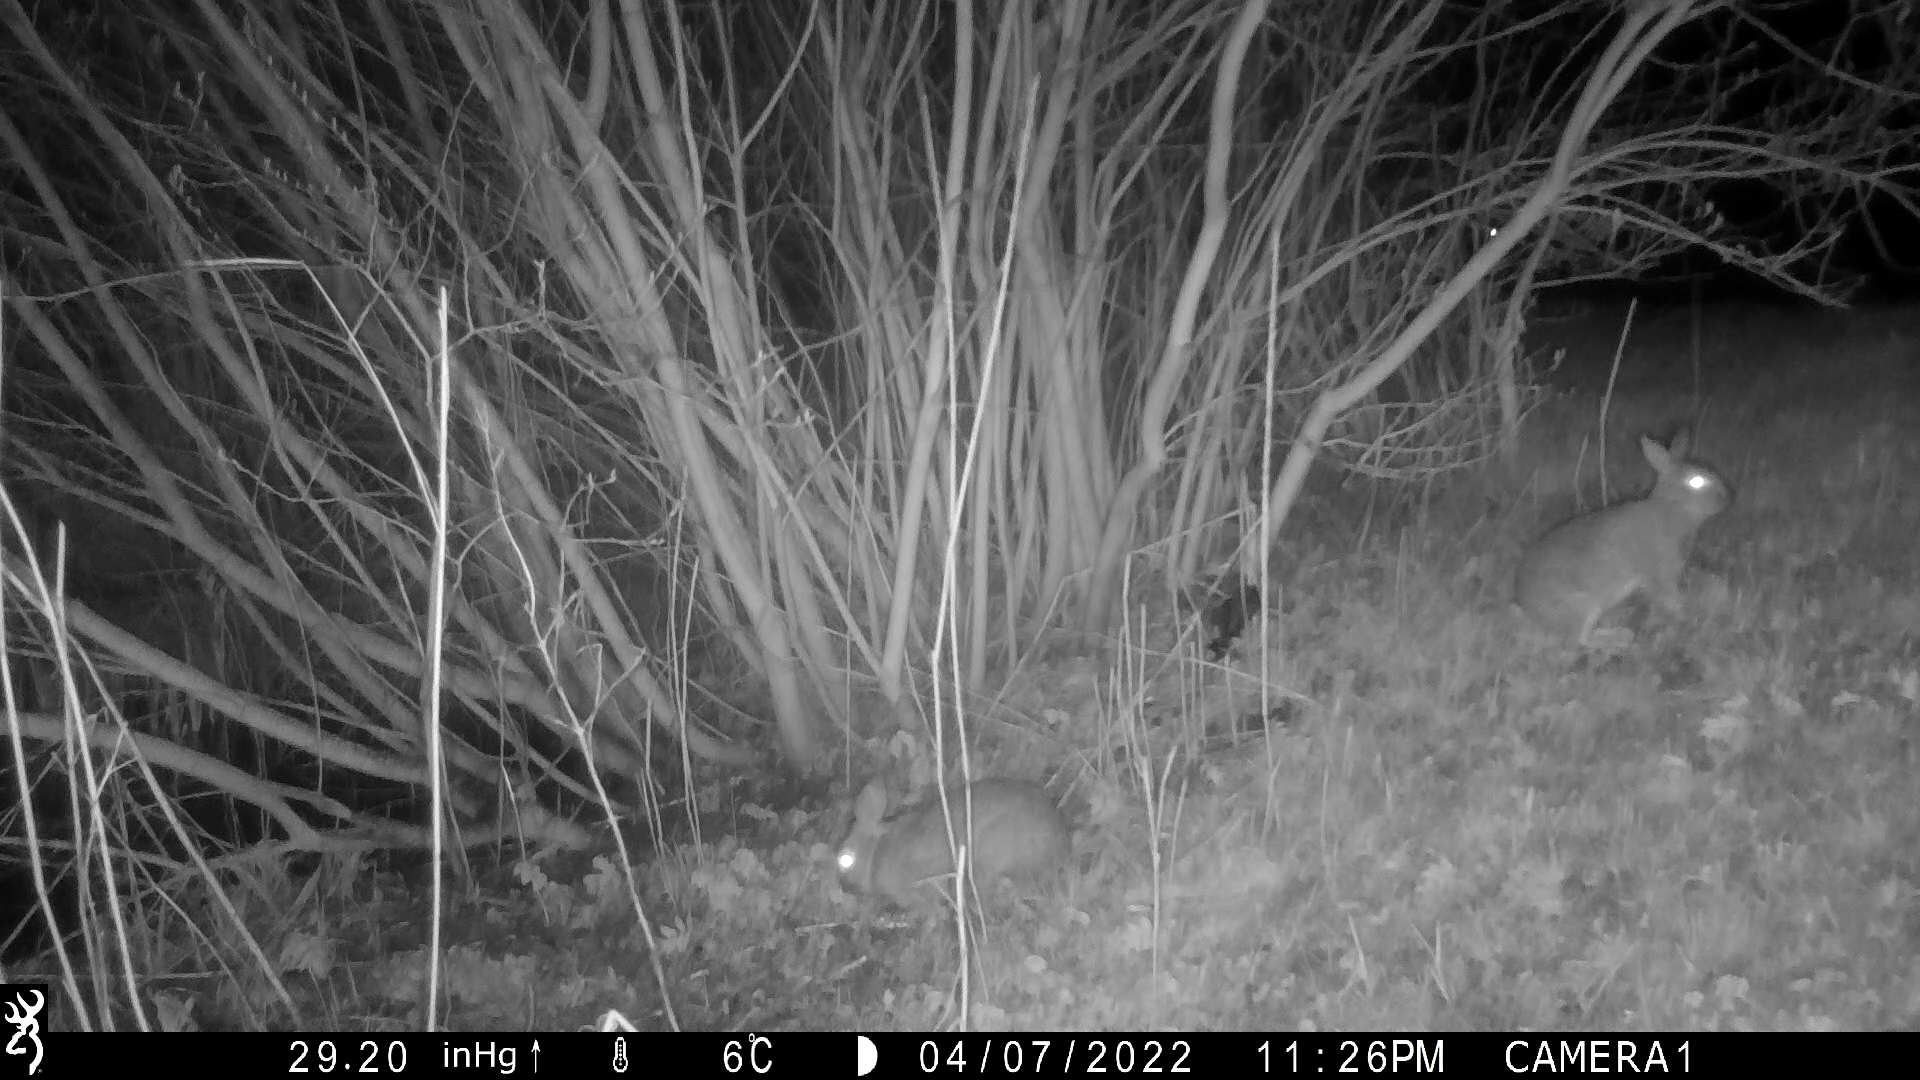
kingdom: Animalia
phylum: Chordata
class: Mammalia
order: Lagomorpha
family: Leporidae
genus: Oryctolagus
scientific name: Oryctolagus cuniculus
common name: European rabbit
